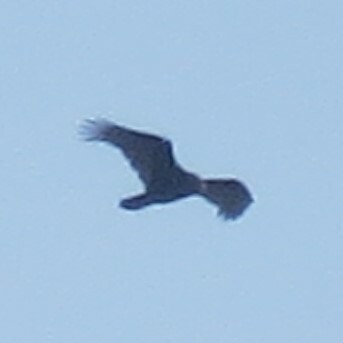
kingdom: Animalia
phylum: Chordata
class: Aves
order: Accipitriformes
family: Cathartidae
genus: Cathartes
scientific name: Cathartes aura
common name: Turkey vulture
